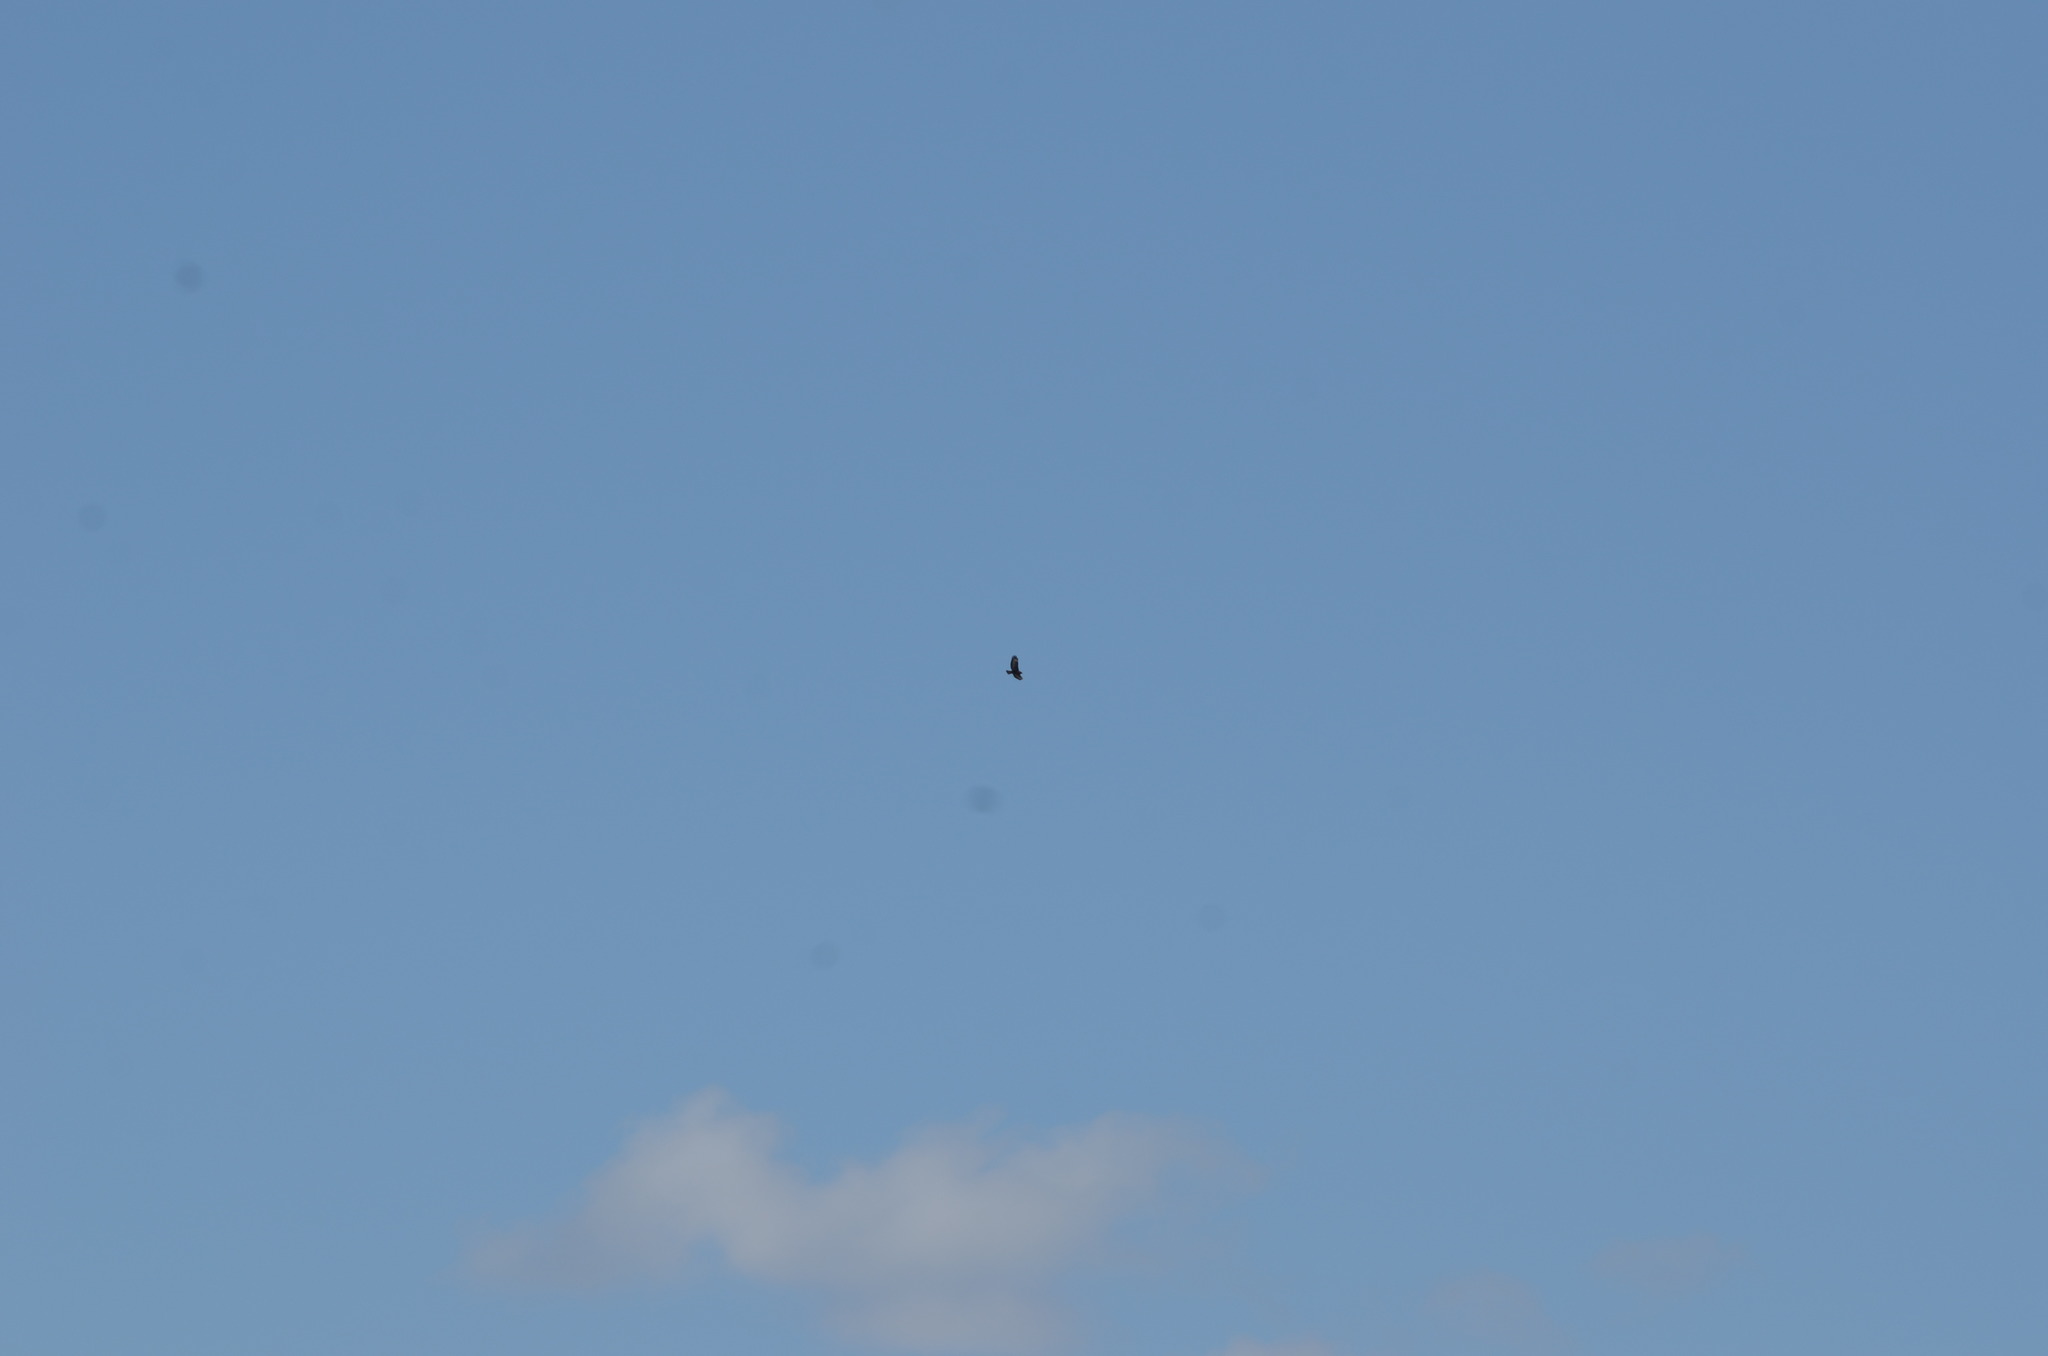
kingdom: Animalia
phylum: Chordata
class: Aves
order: Accipitriformes
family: Accipitridae
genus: Buteo
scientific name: Buteo buteo
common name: Common buzzard
